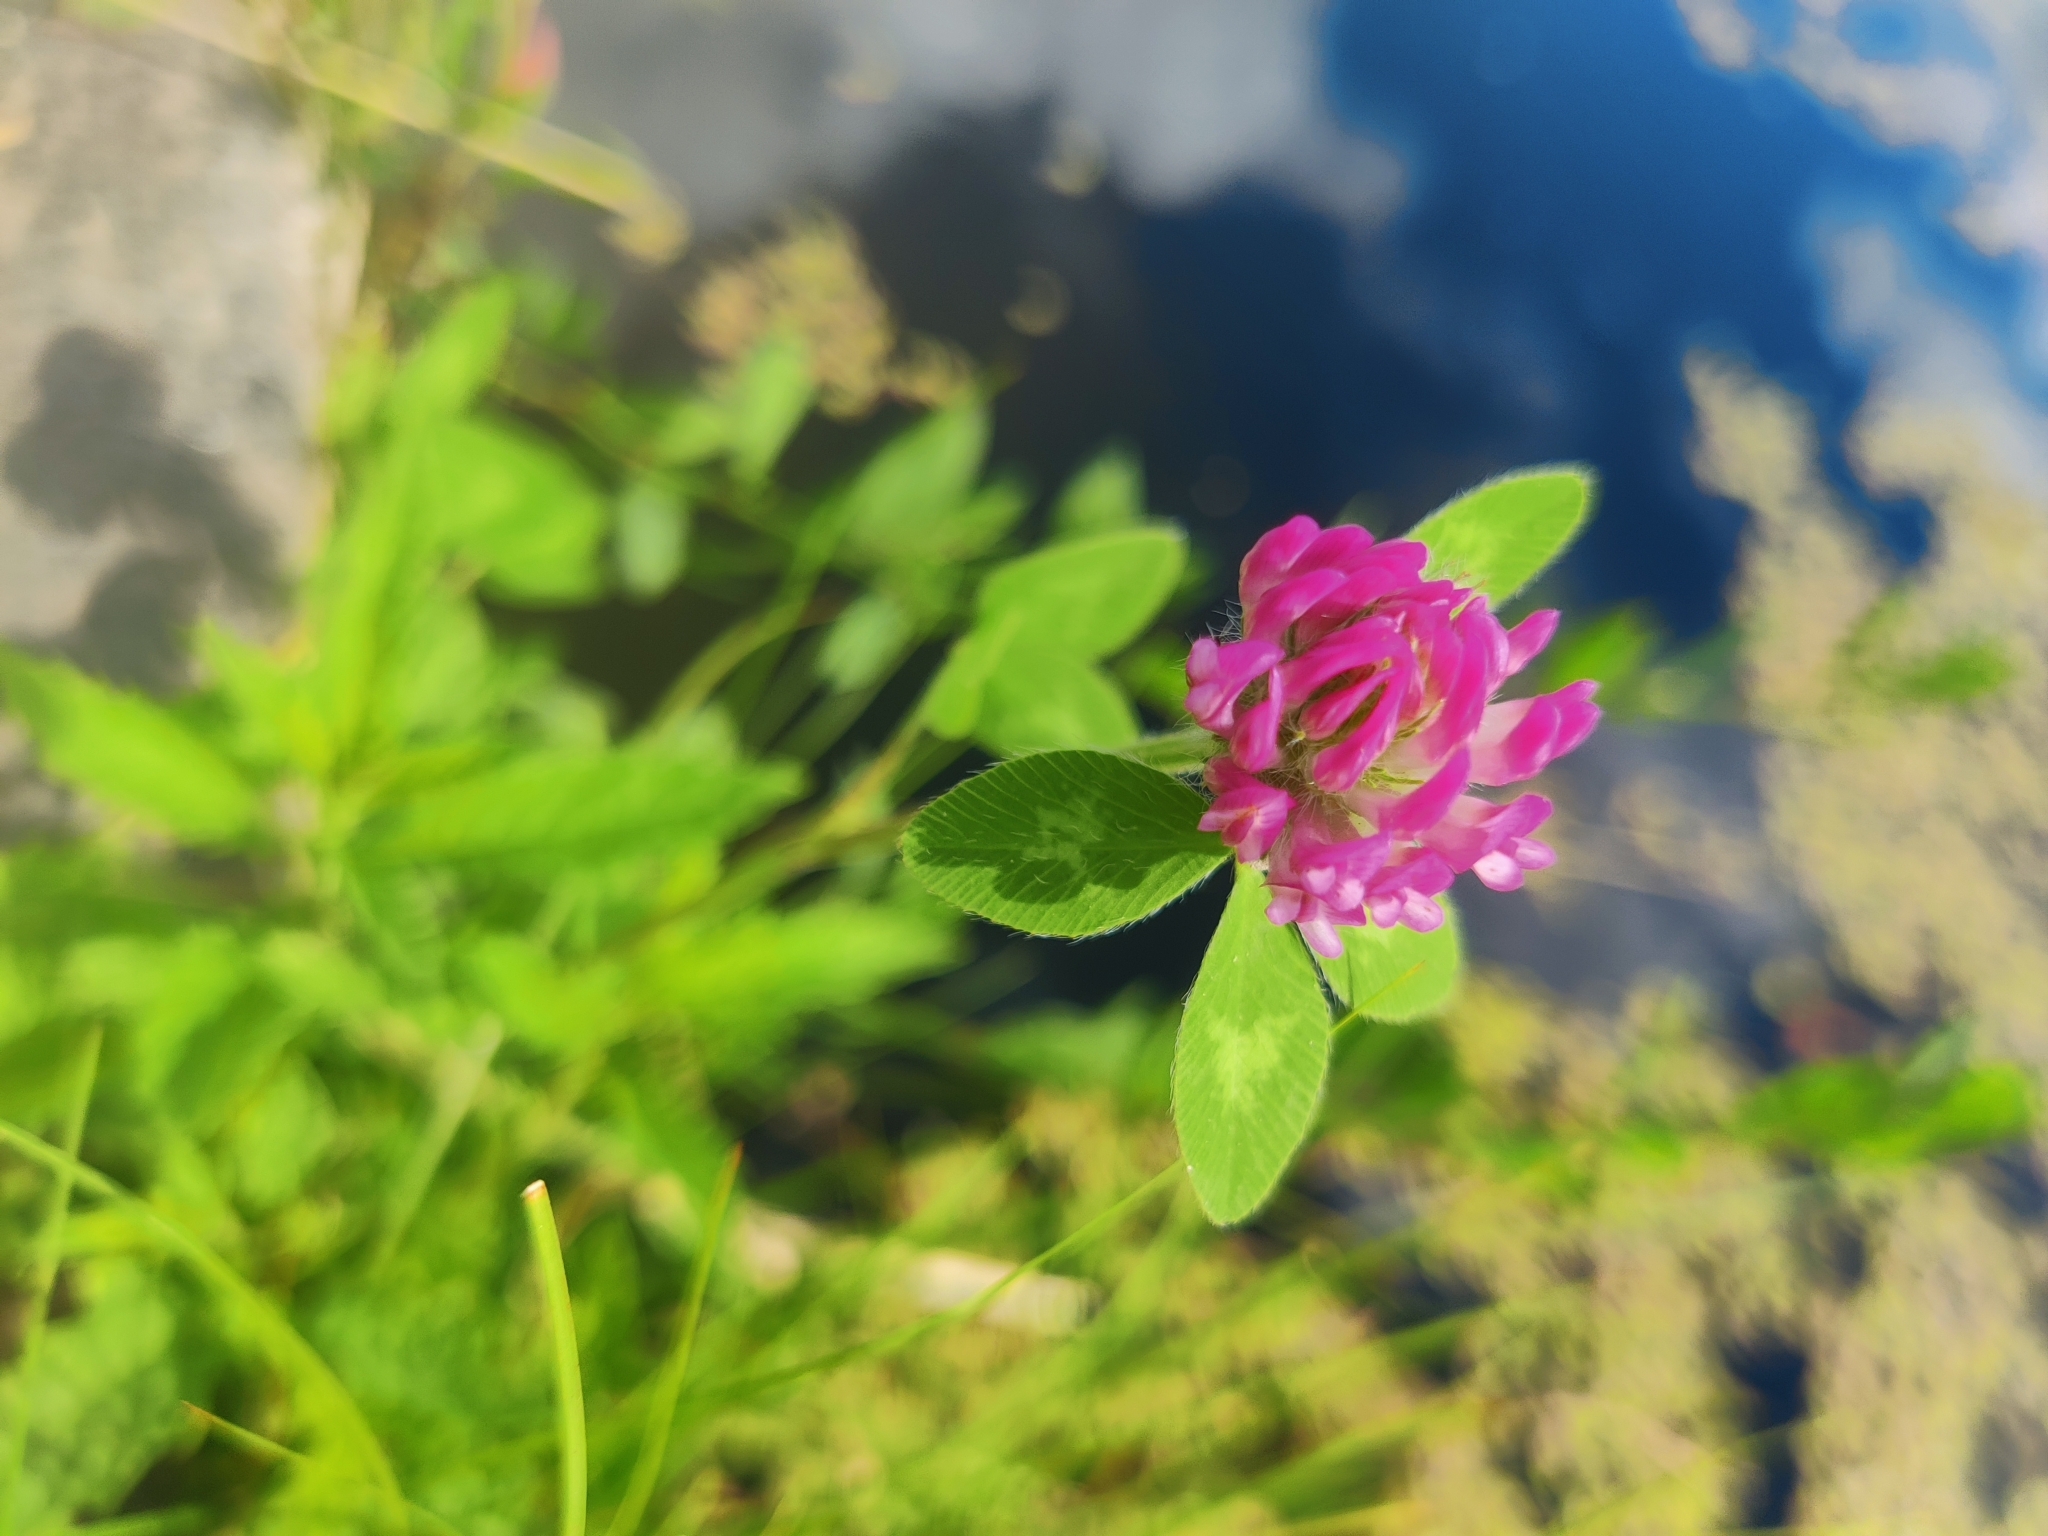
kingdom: Plantae
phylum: Tracheophyta
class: Magnoliopsida
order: Fabales
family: Fabaceae
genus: Trifolium
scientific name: Trifolium pratense
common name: Red clover
